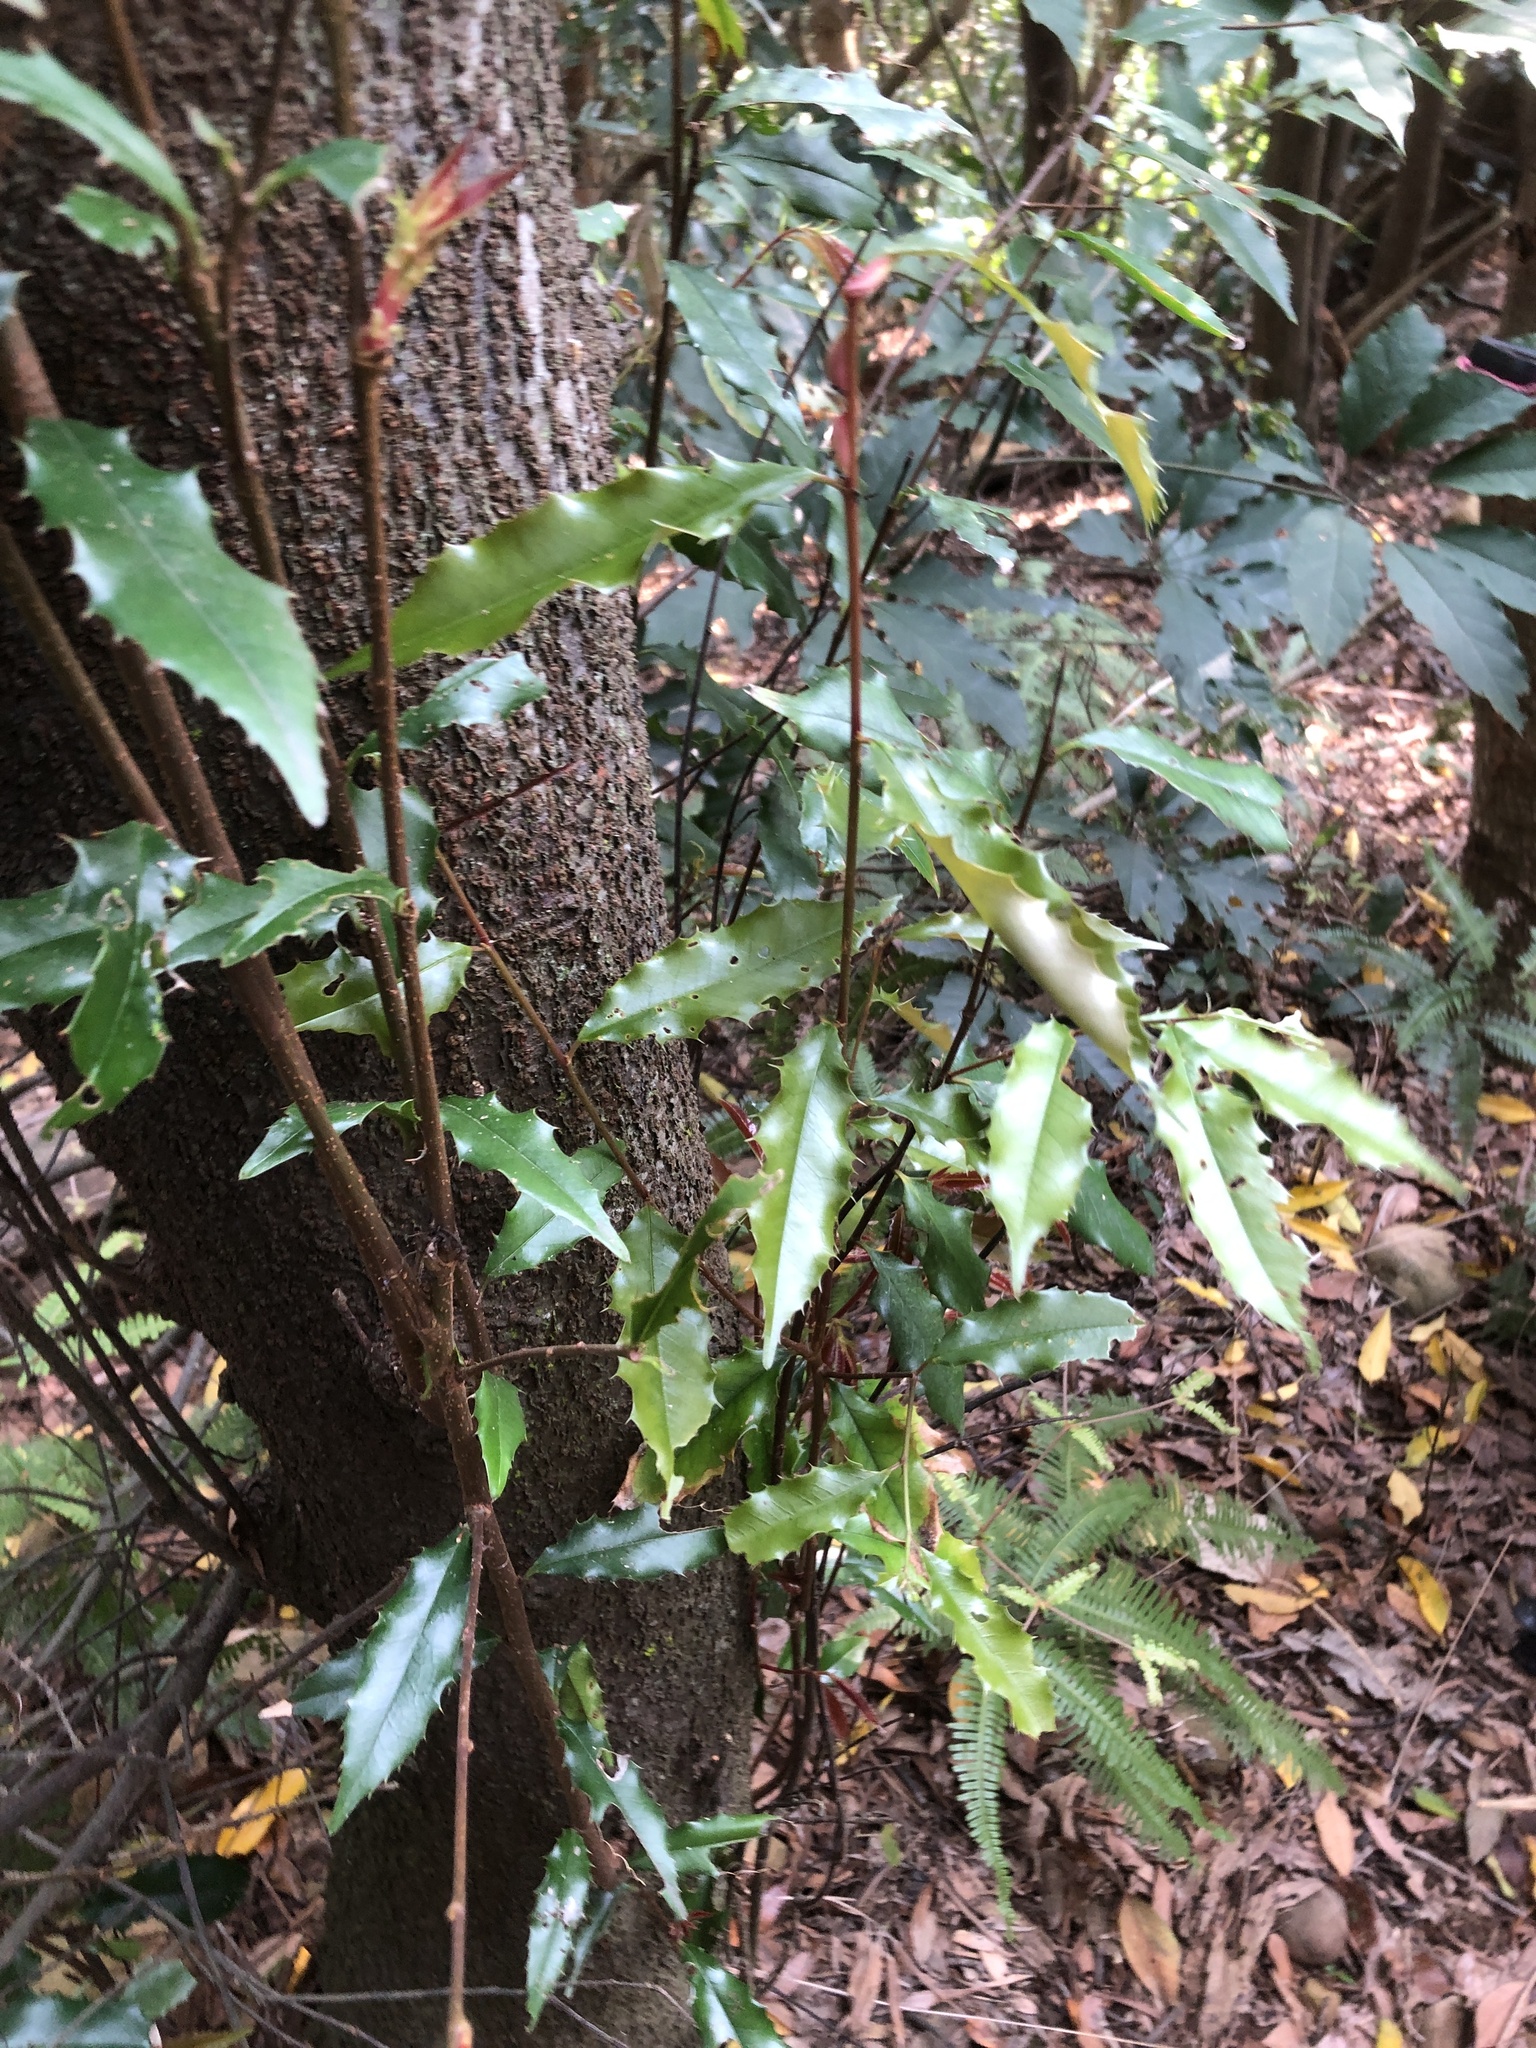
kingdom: Plantae
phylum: Tracheophyta
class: Magnoliopsida
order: Rosales
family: Rosaceae
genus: Prunus
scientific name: Prunus spinulosa
